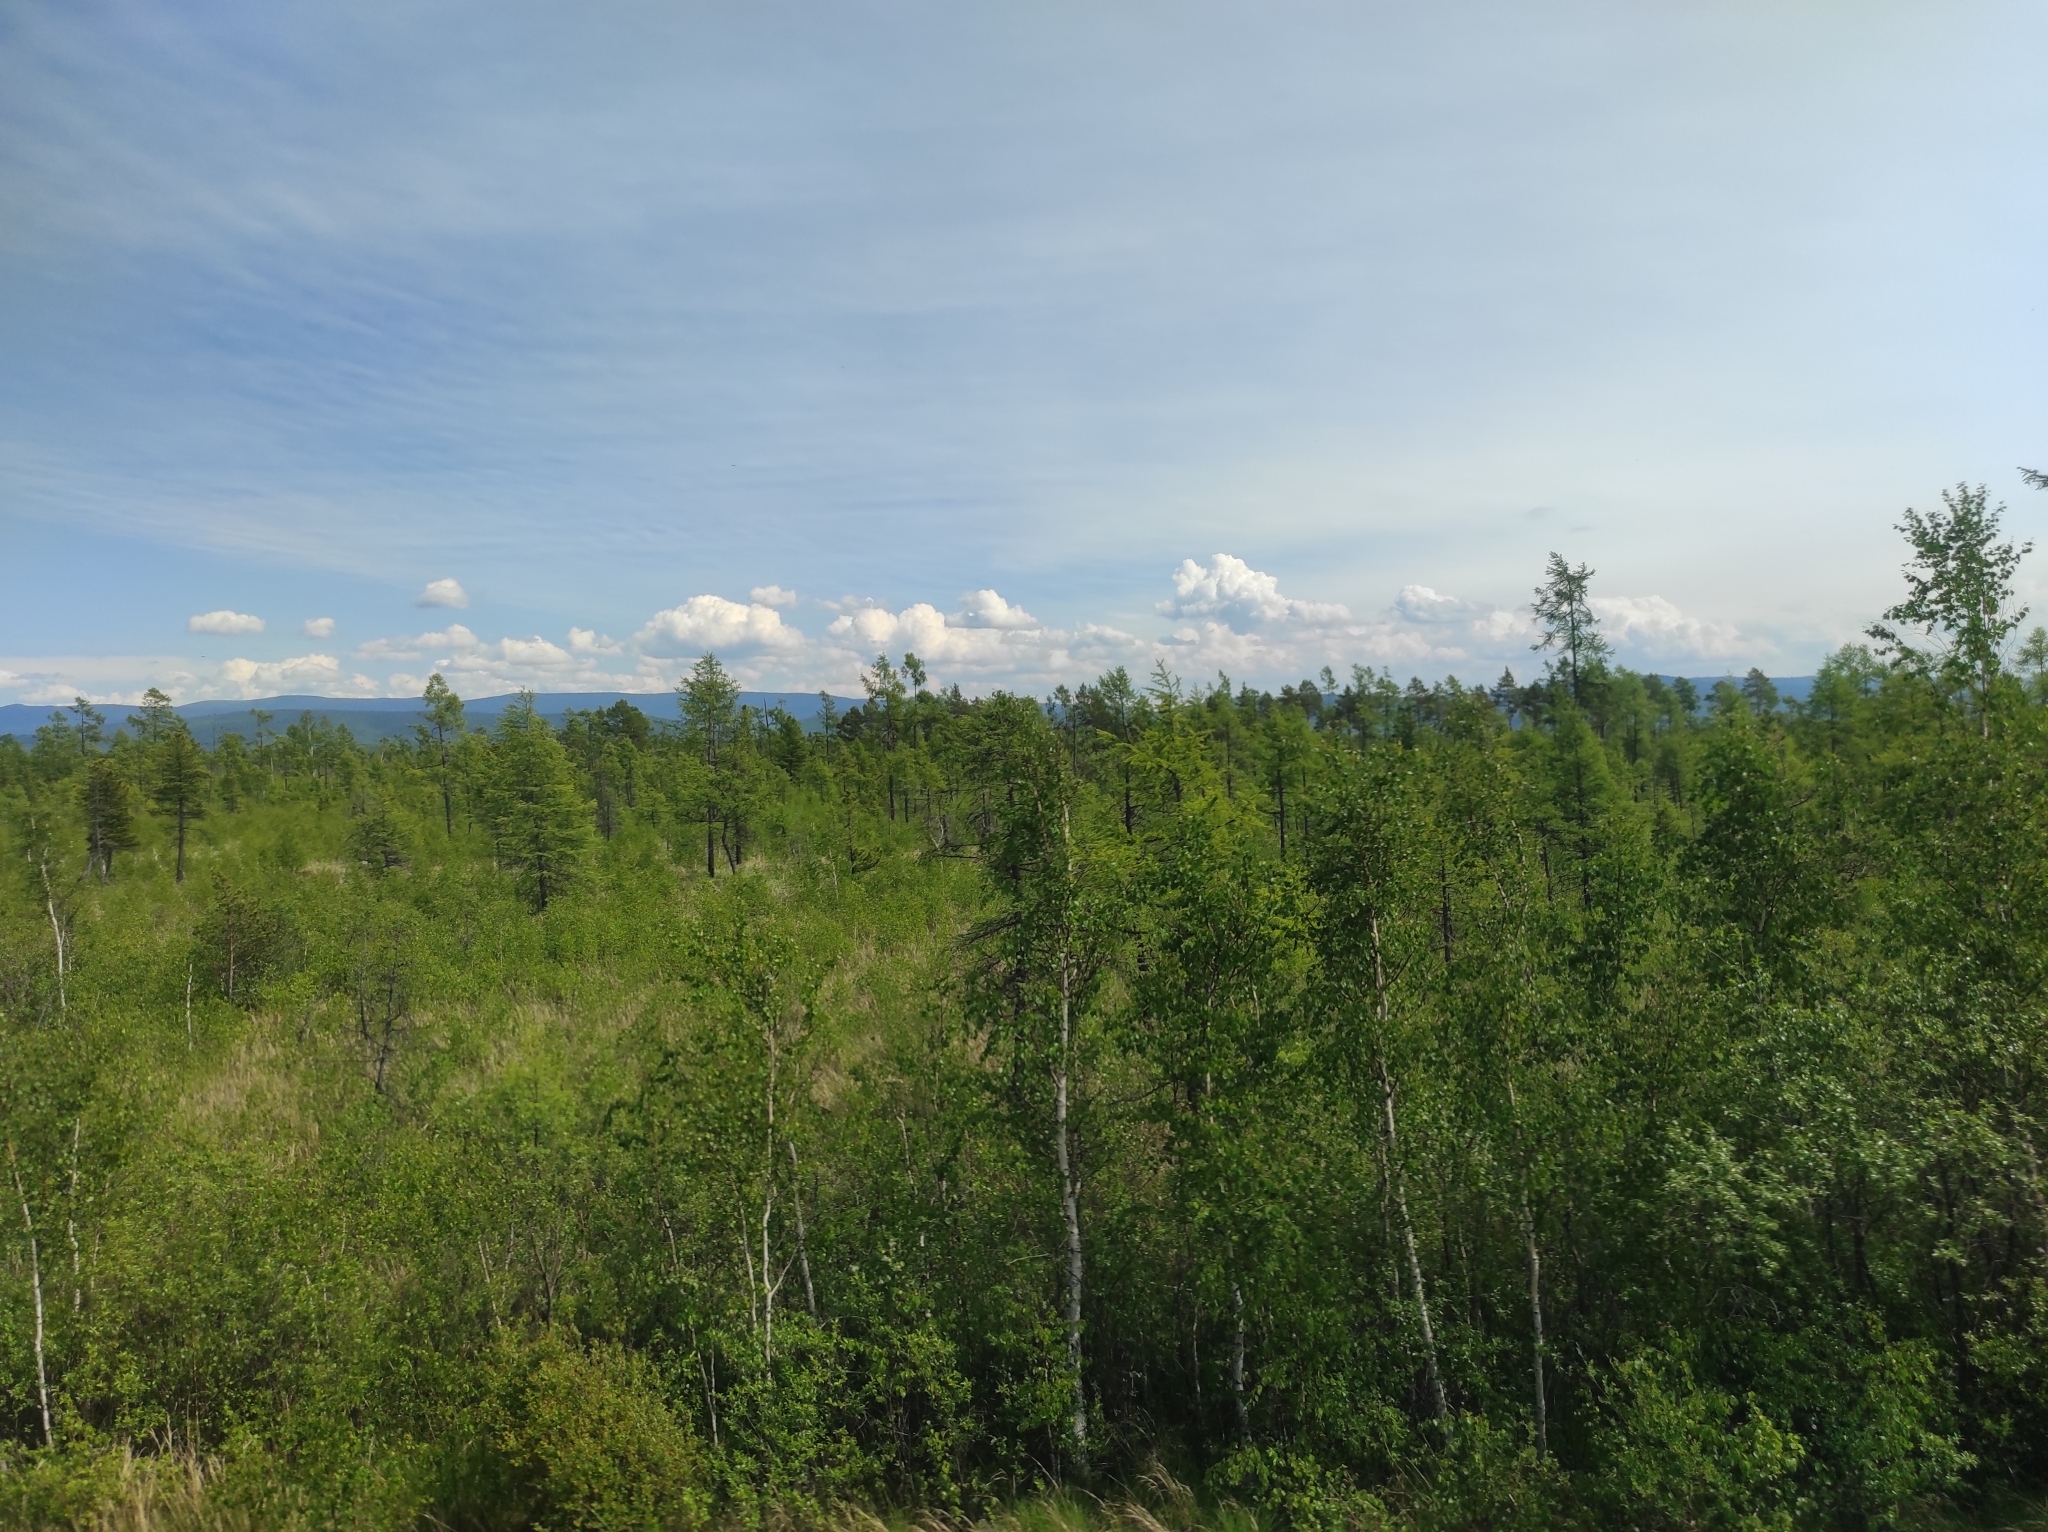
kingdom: Plantae
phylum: Tracheophyta
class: Pinopsida
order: Pinales
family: Pinaceae
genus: Larix
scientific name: Larix sibirica
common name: Siberian larch
